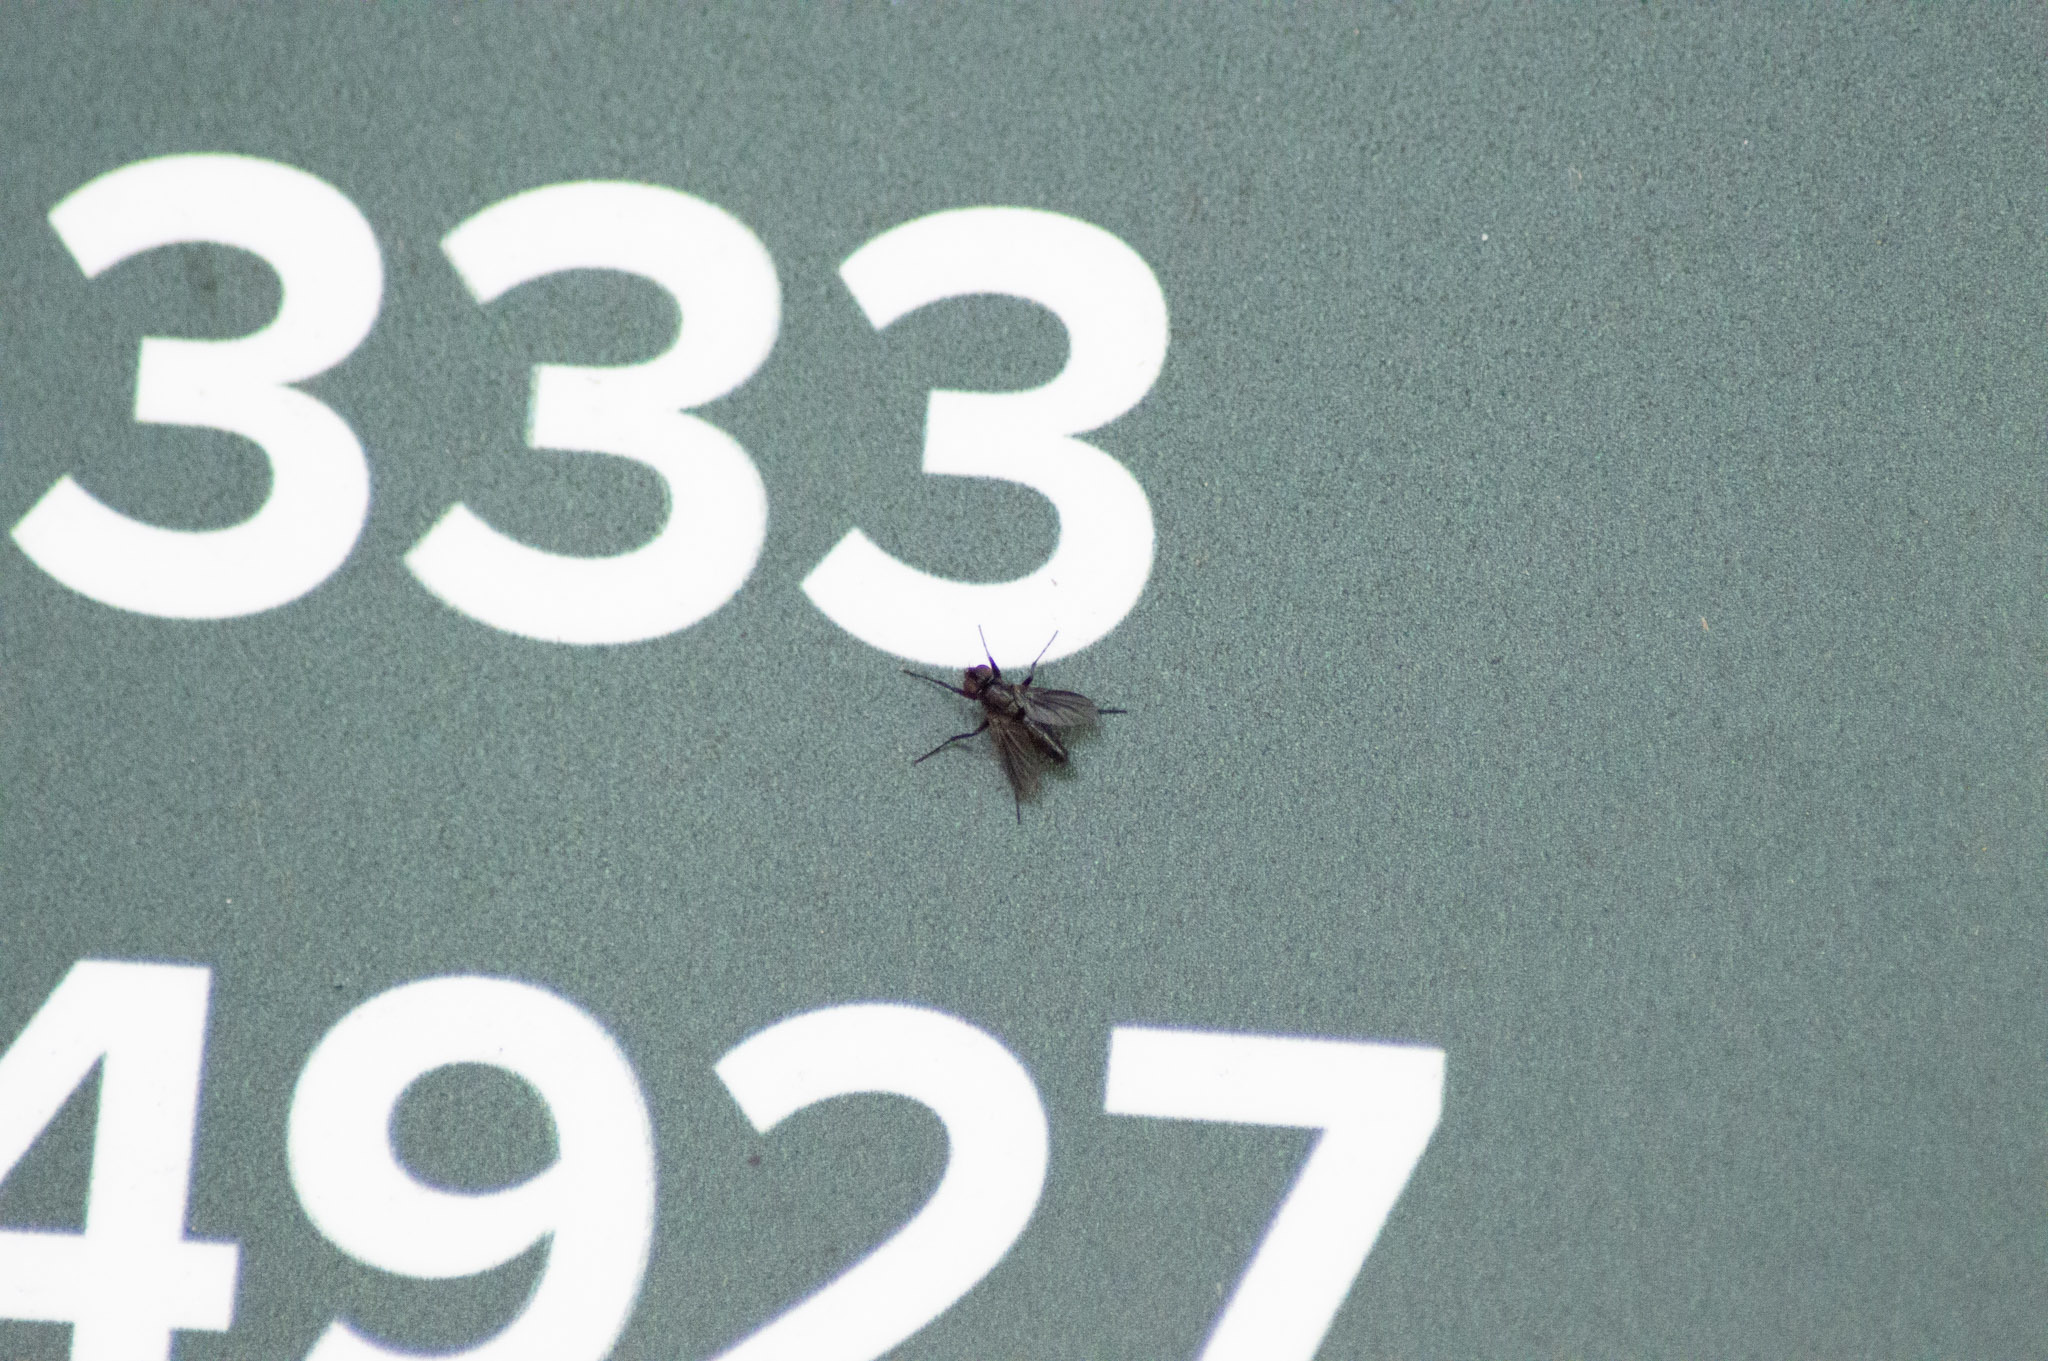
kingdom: Animalia
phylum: Arthropoda
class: Insecta
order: Diptera
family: Calliphoridae
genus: Melanophora
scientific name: Melanophora roralis
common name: Smoky-winged woodlouse-fly
